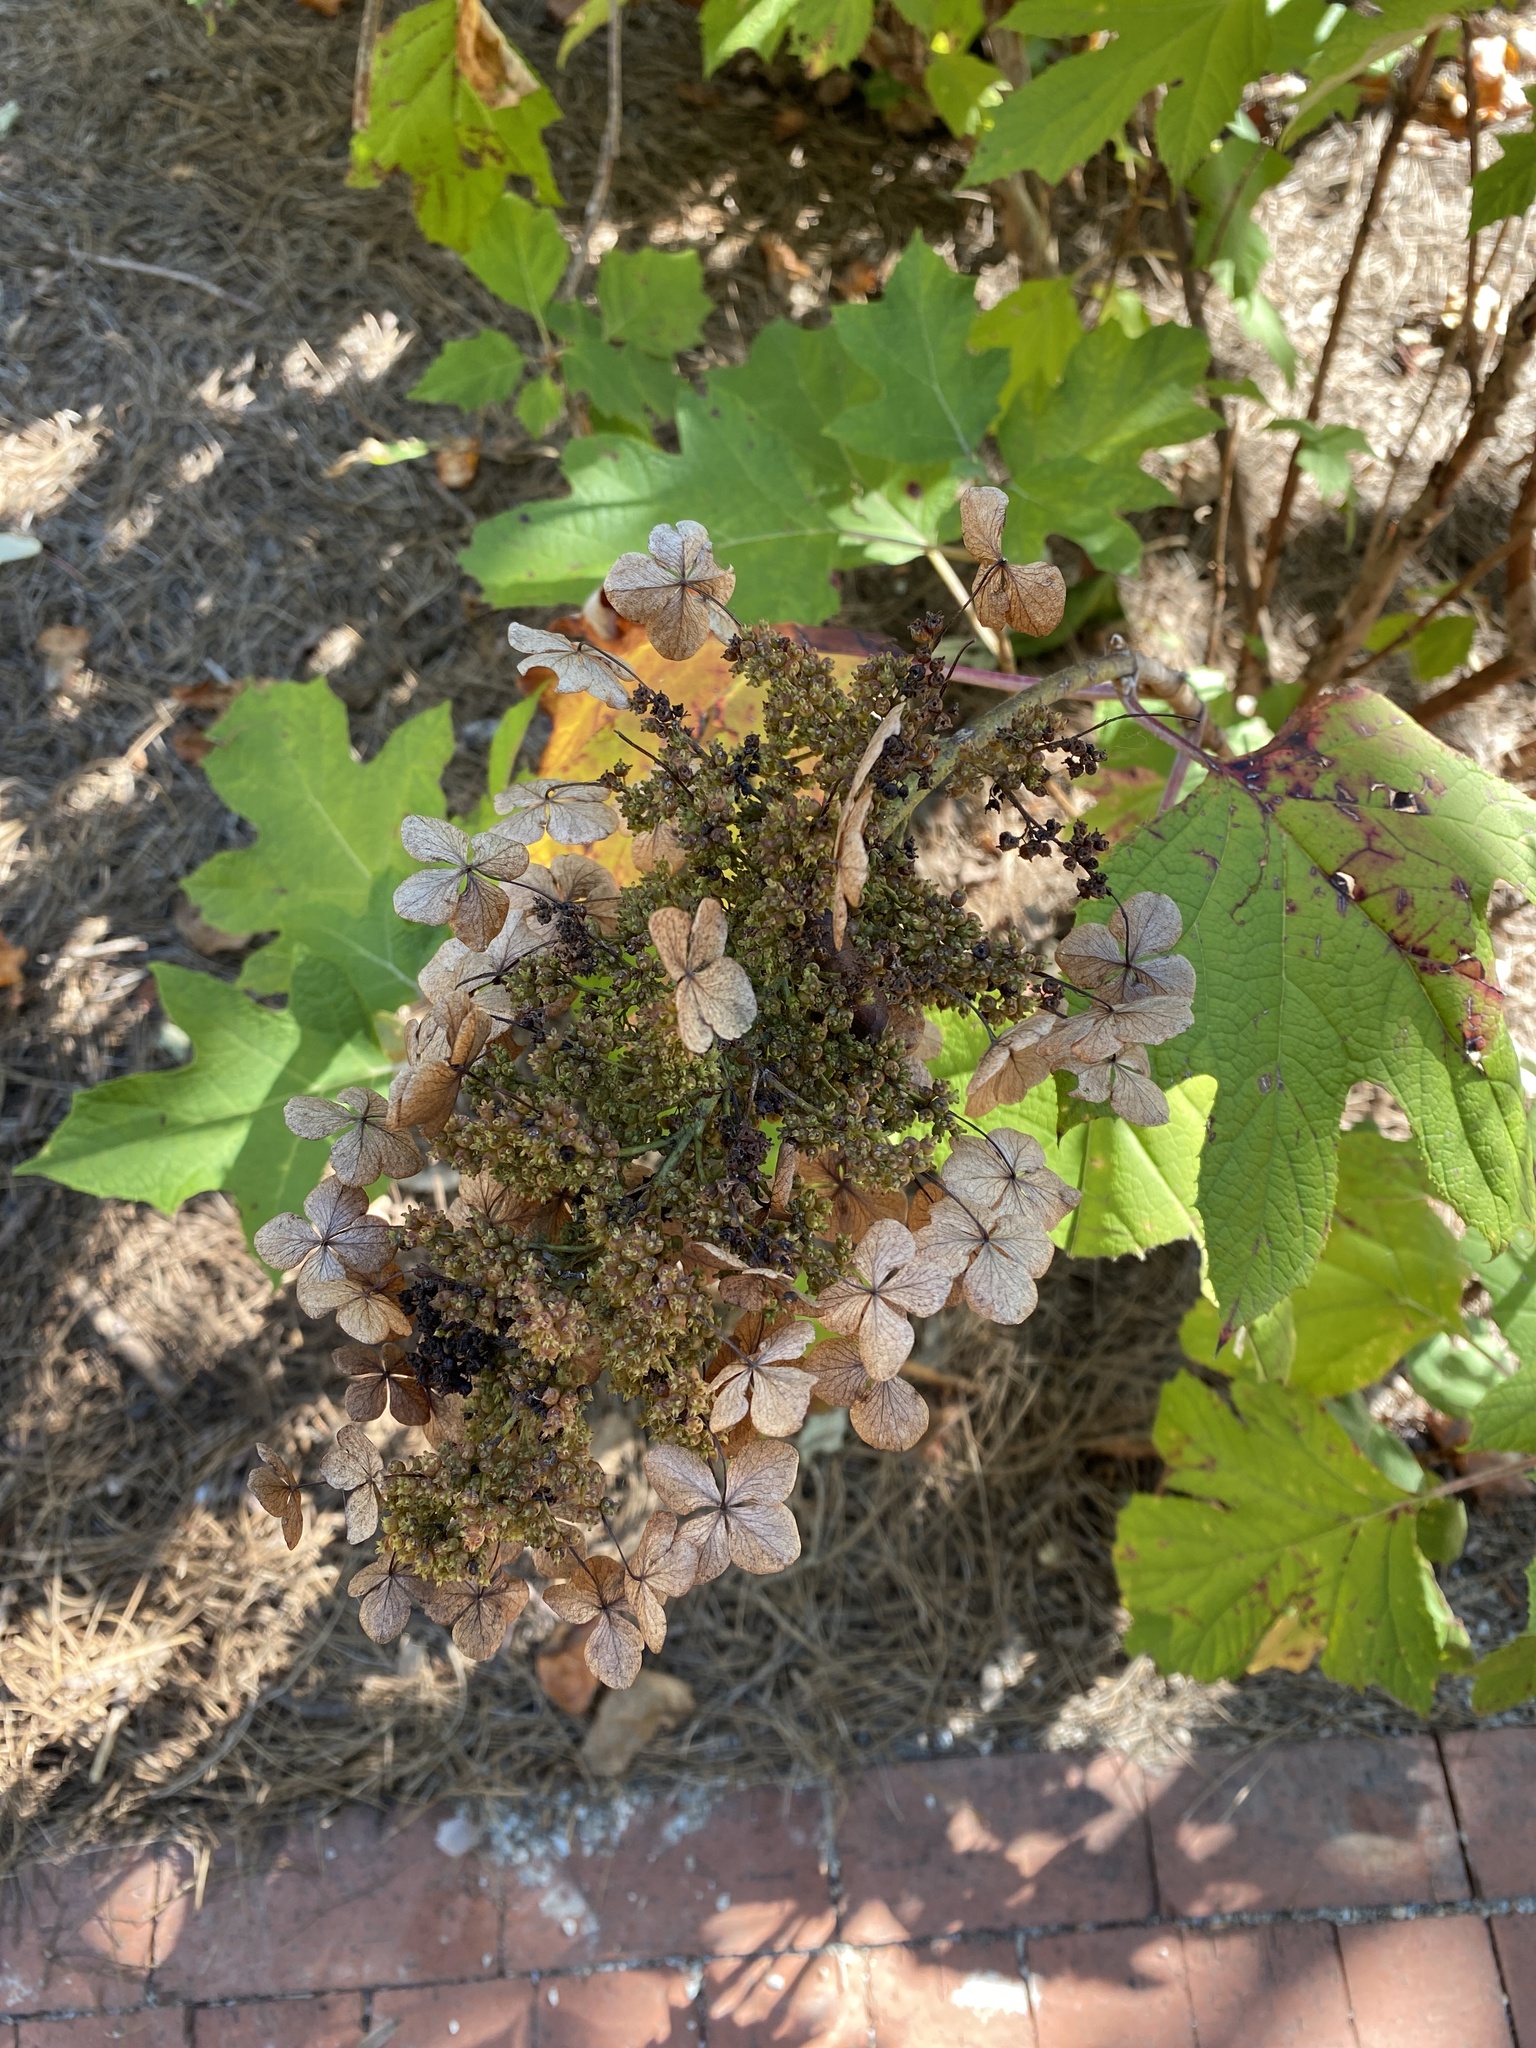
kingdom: Plantae
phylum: Tracheophyta
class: Magnoliopsida
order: Cornales
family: Hydrangeaceae
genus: Hydrangea
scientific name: Hydrangea quercifolia
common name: Oak-leaf hydrangea
